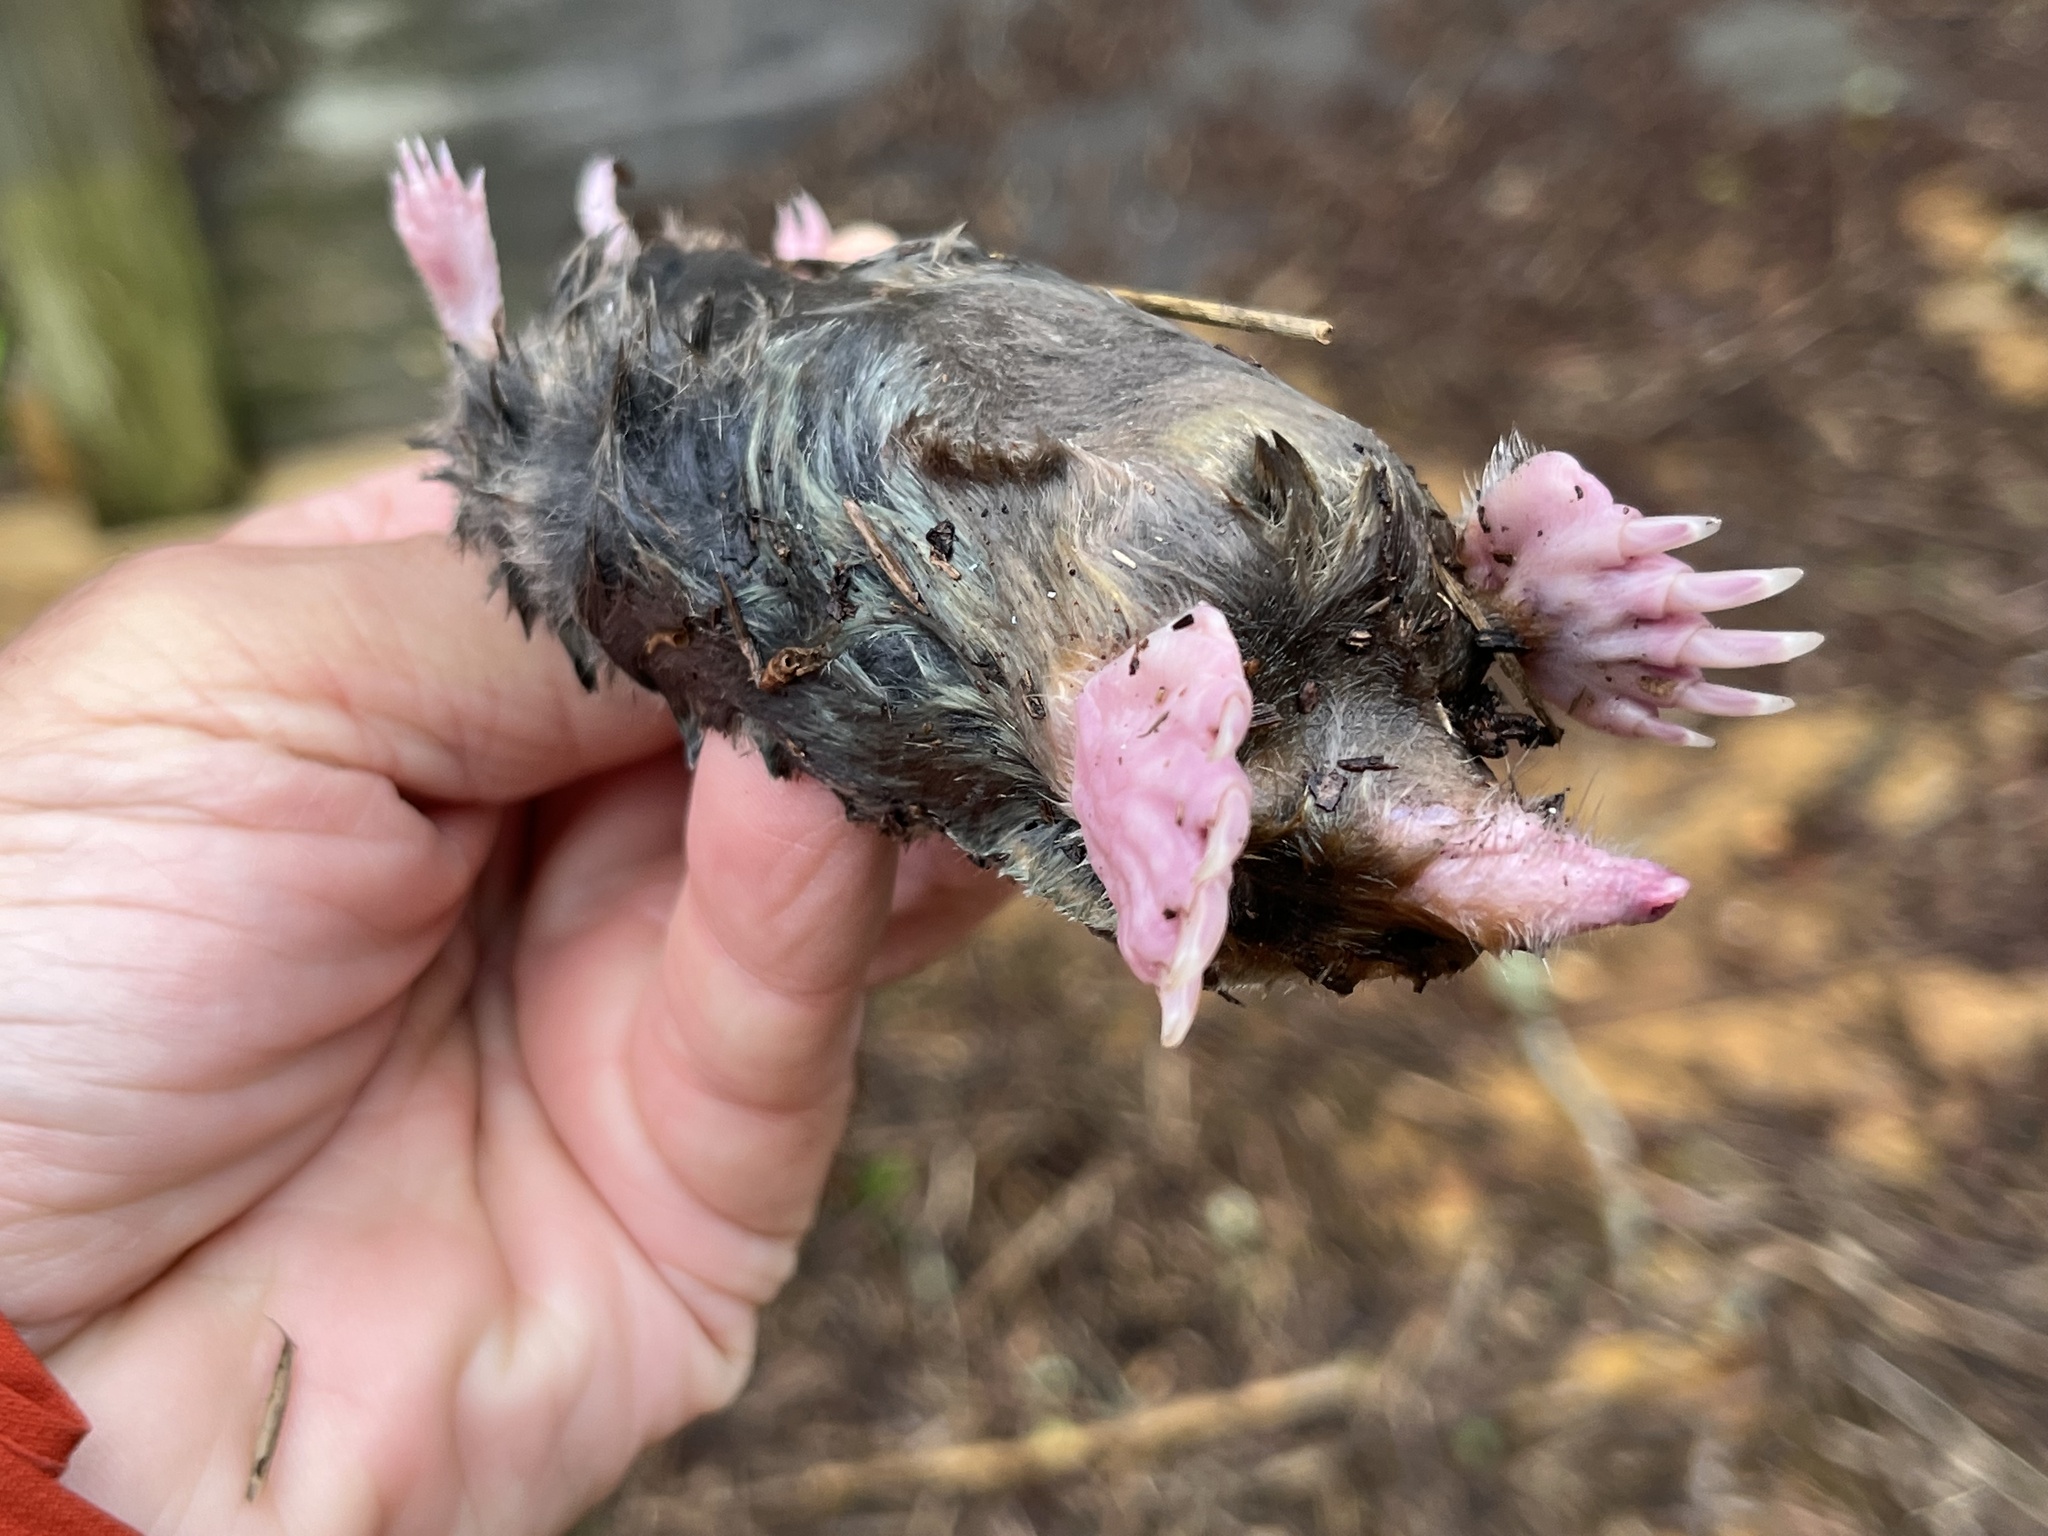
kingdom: Animalia
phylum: Chordata
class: Mammalia
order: Soricomorpha
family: Talpidae
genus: Scalopus
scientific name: Scalopus aquaticus
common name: Eastern mole
